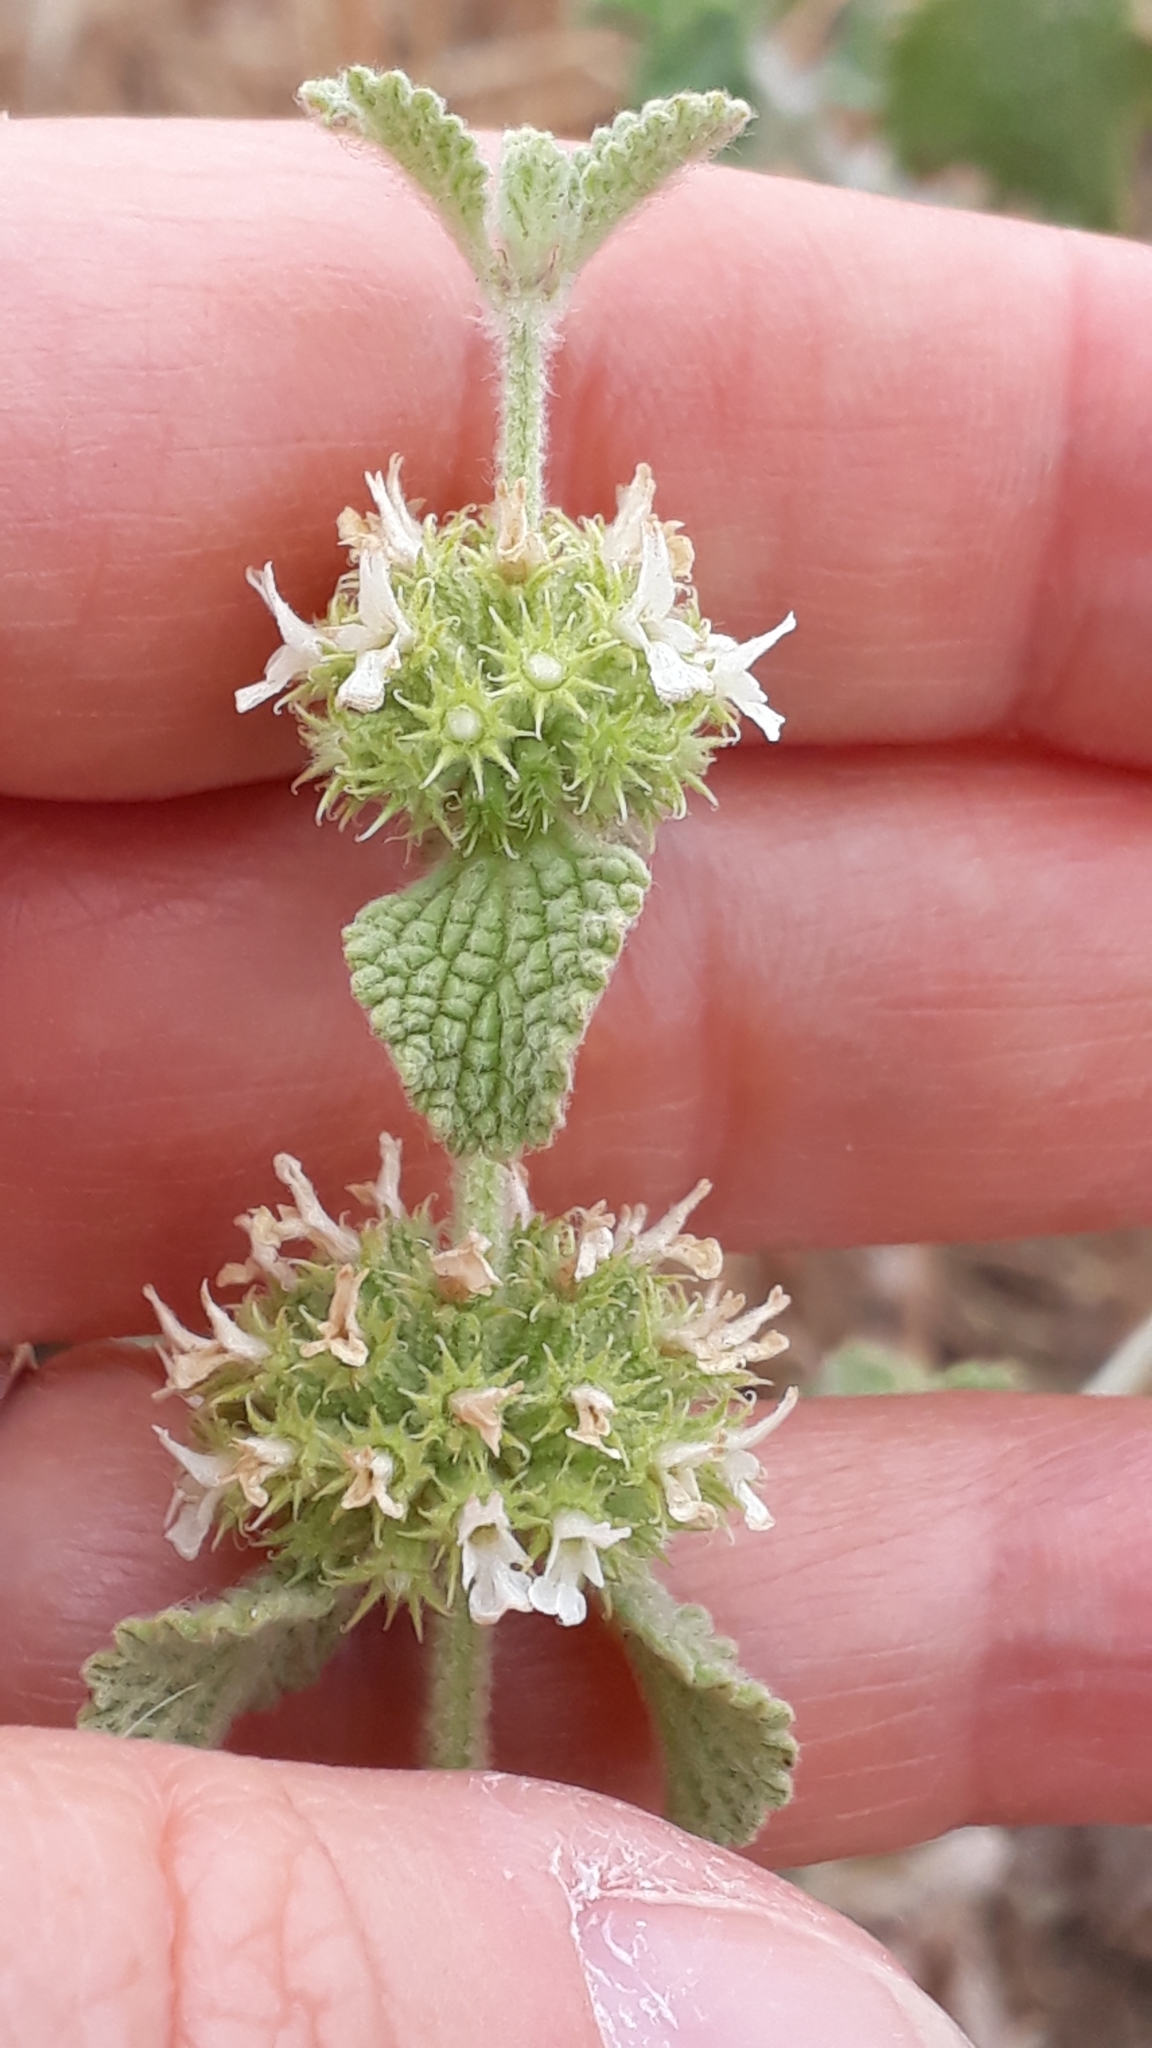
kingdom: Plantae
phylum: Tracheophyta
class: Magnoliopsida
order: Lamiales
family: Lamiaceae
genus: Marrubium
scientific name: Marrubium vulgare
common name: Horehound
